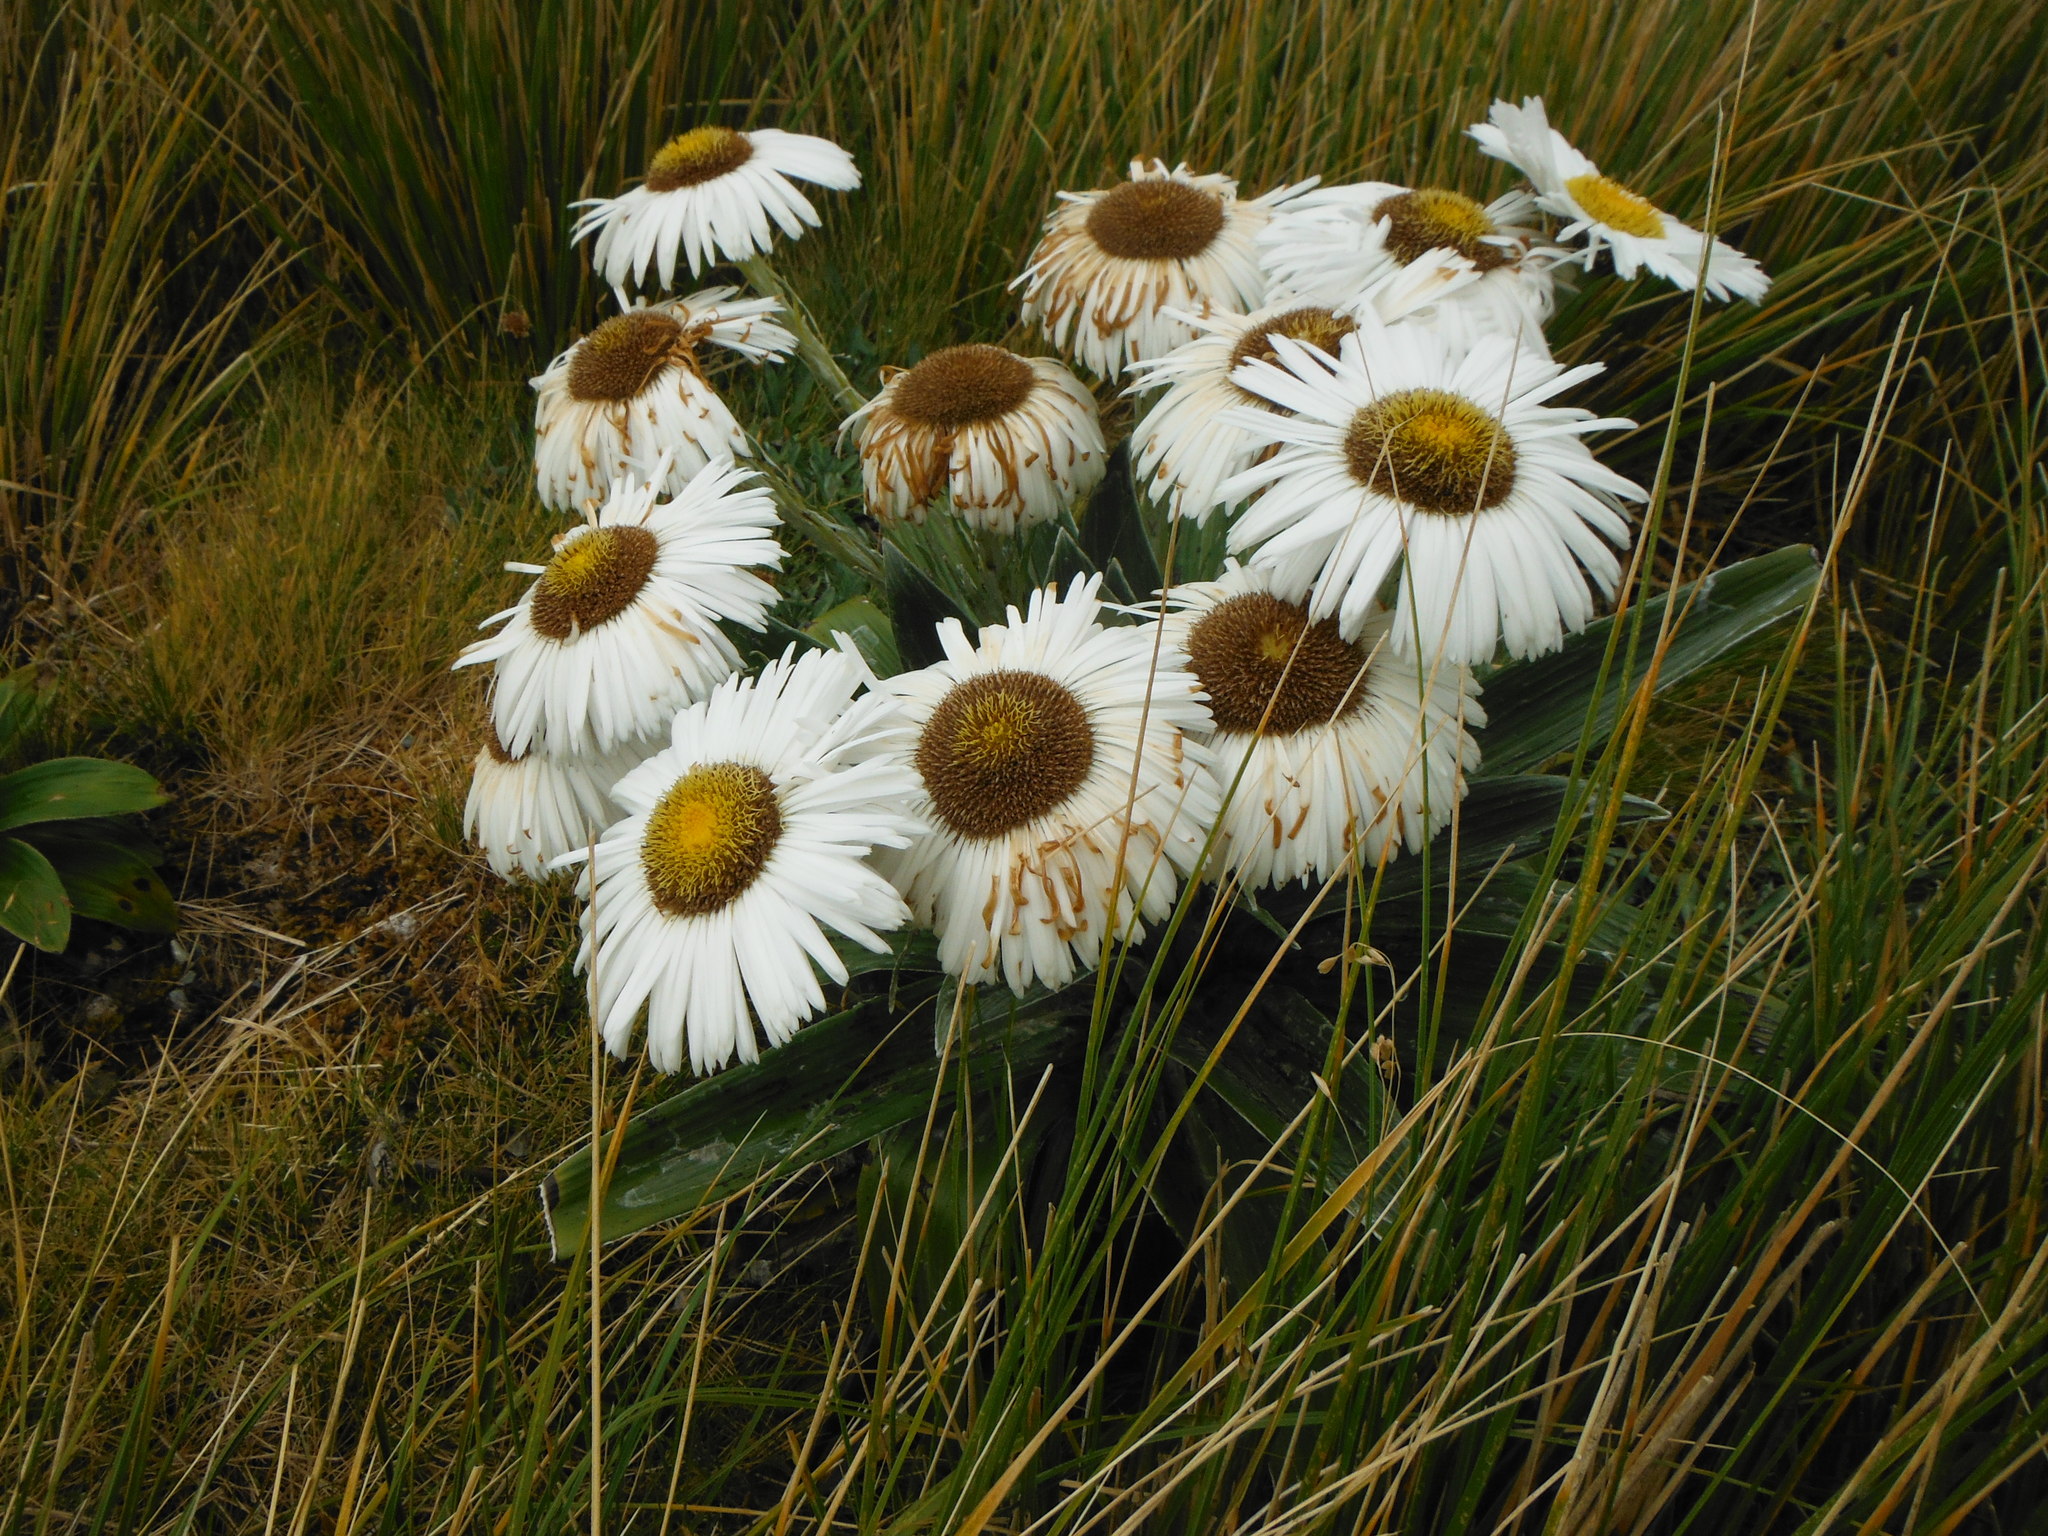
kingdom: Plantae
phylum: Tracheophyta
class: Magnoliopsida
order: Asterales
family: Asteraceae
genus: Celmisia
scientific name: Celmisia semicordata
